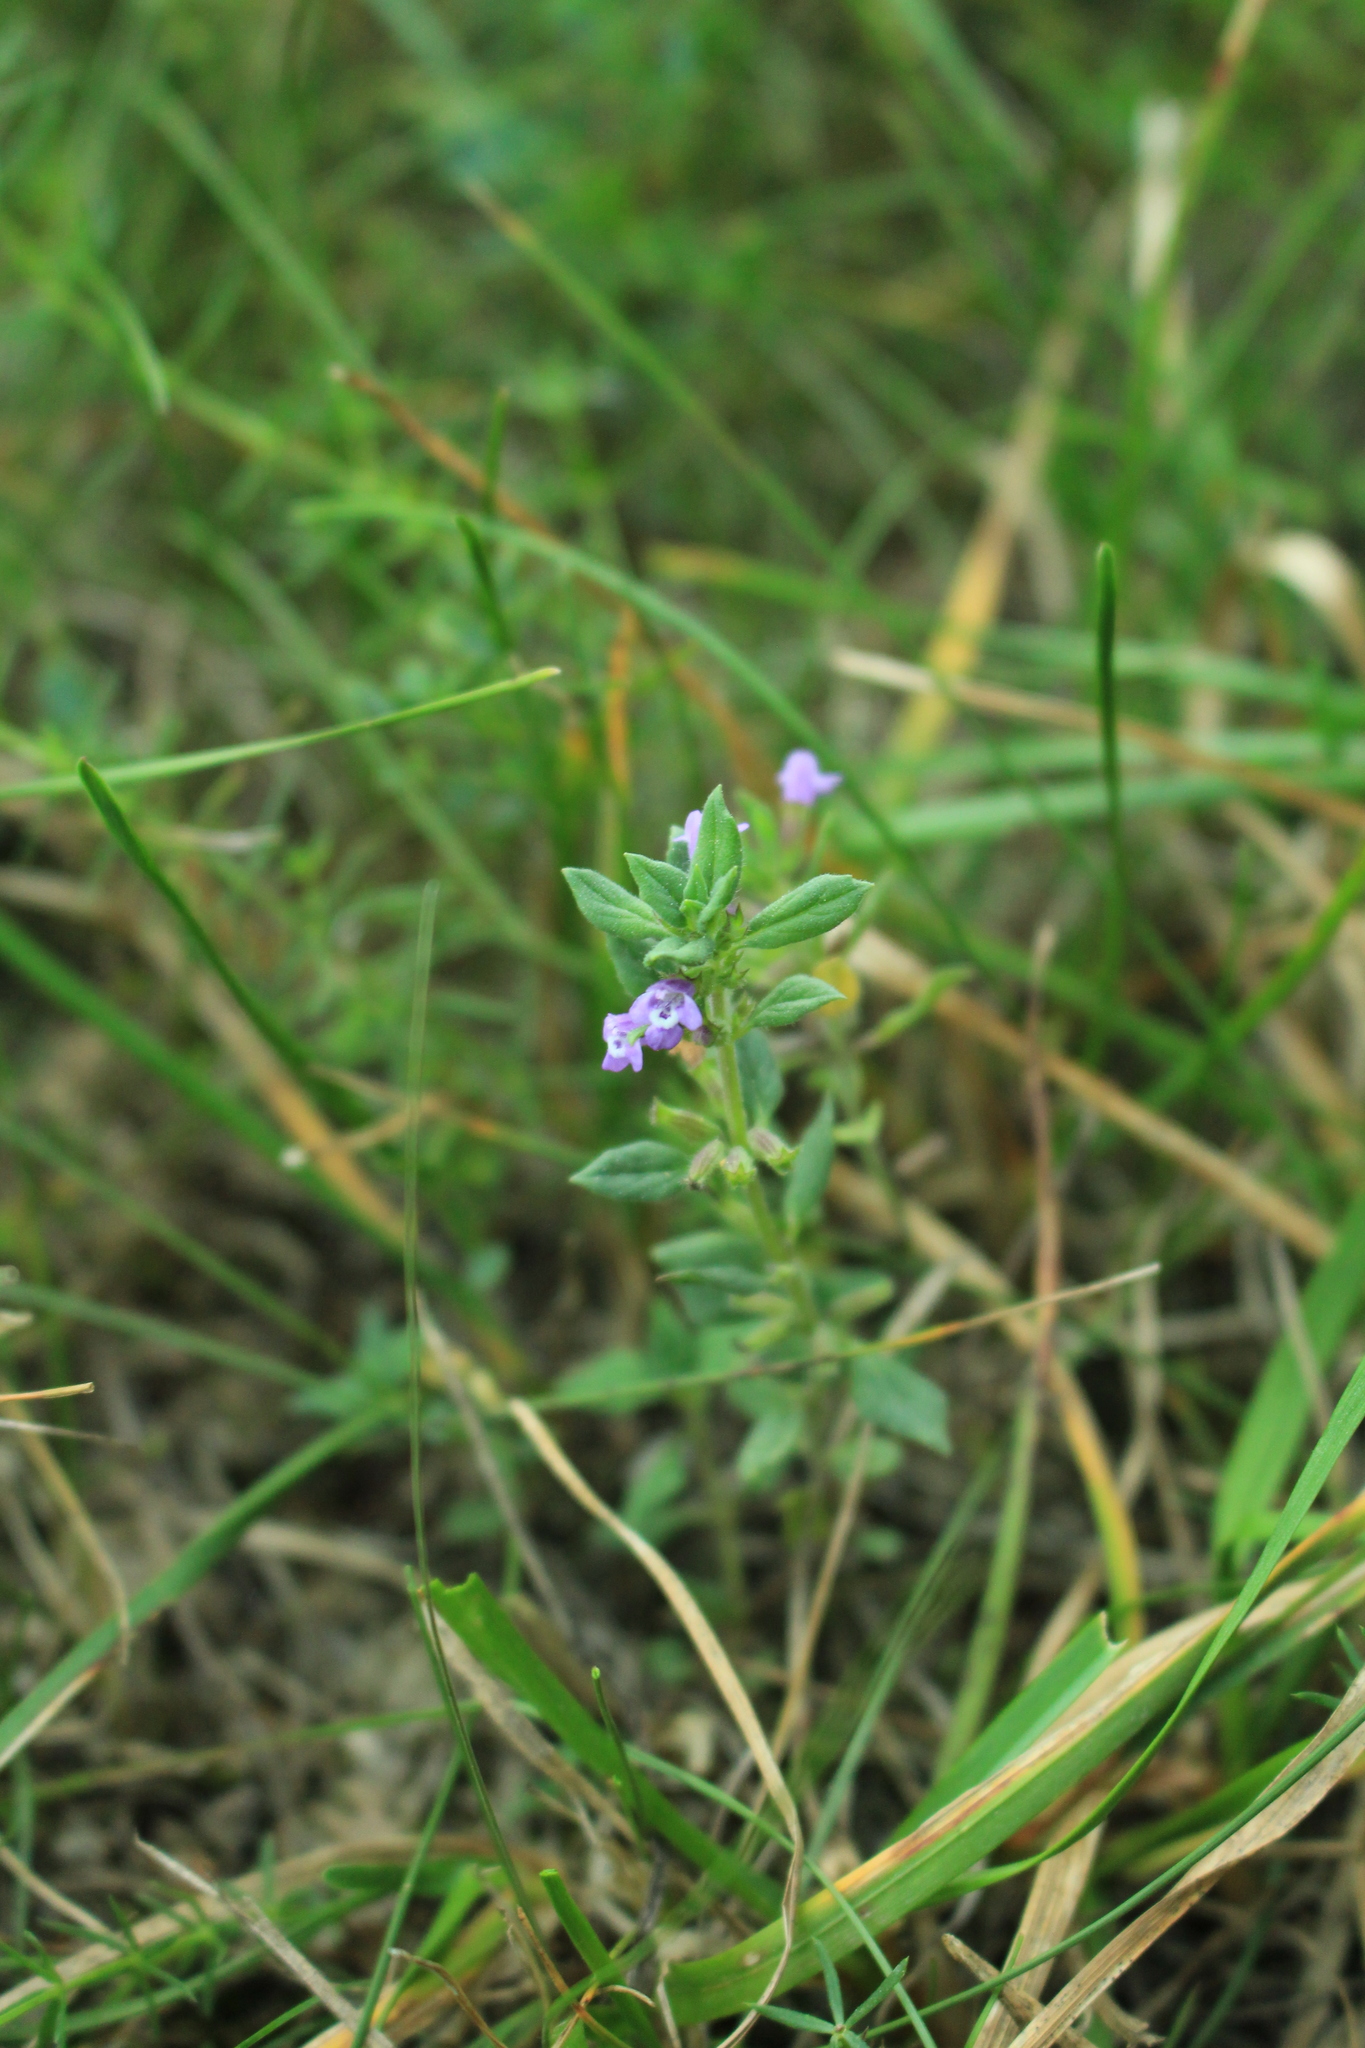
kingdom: Plantae
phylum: Tracheophyta
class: Magnoliopsida
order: Lamiales
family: Lamiaceae
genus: Clinopodium
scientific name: Clinopodium acinos
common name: Basil thyme
